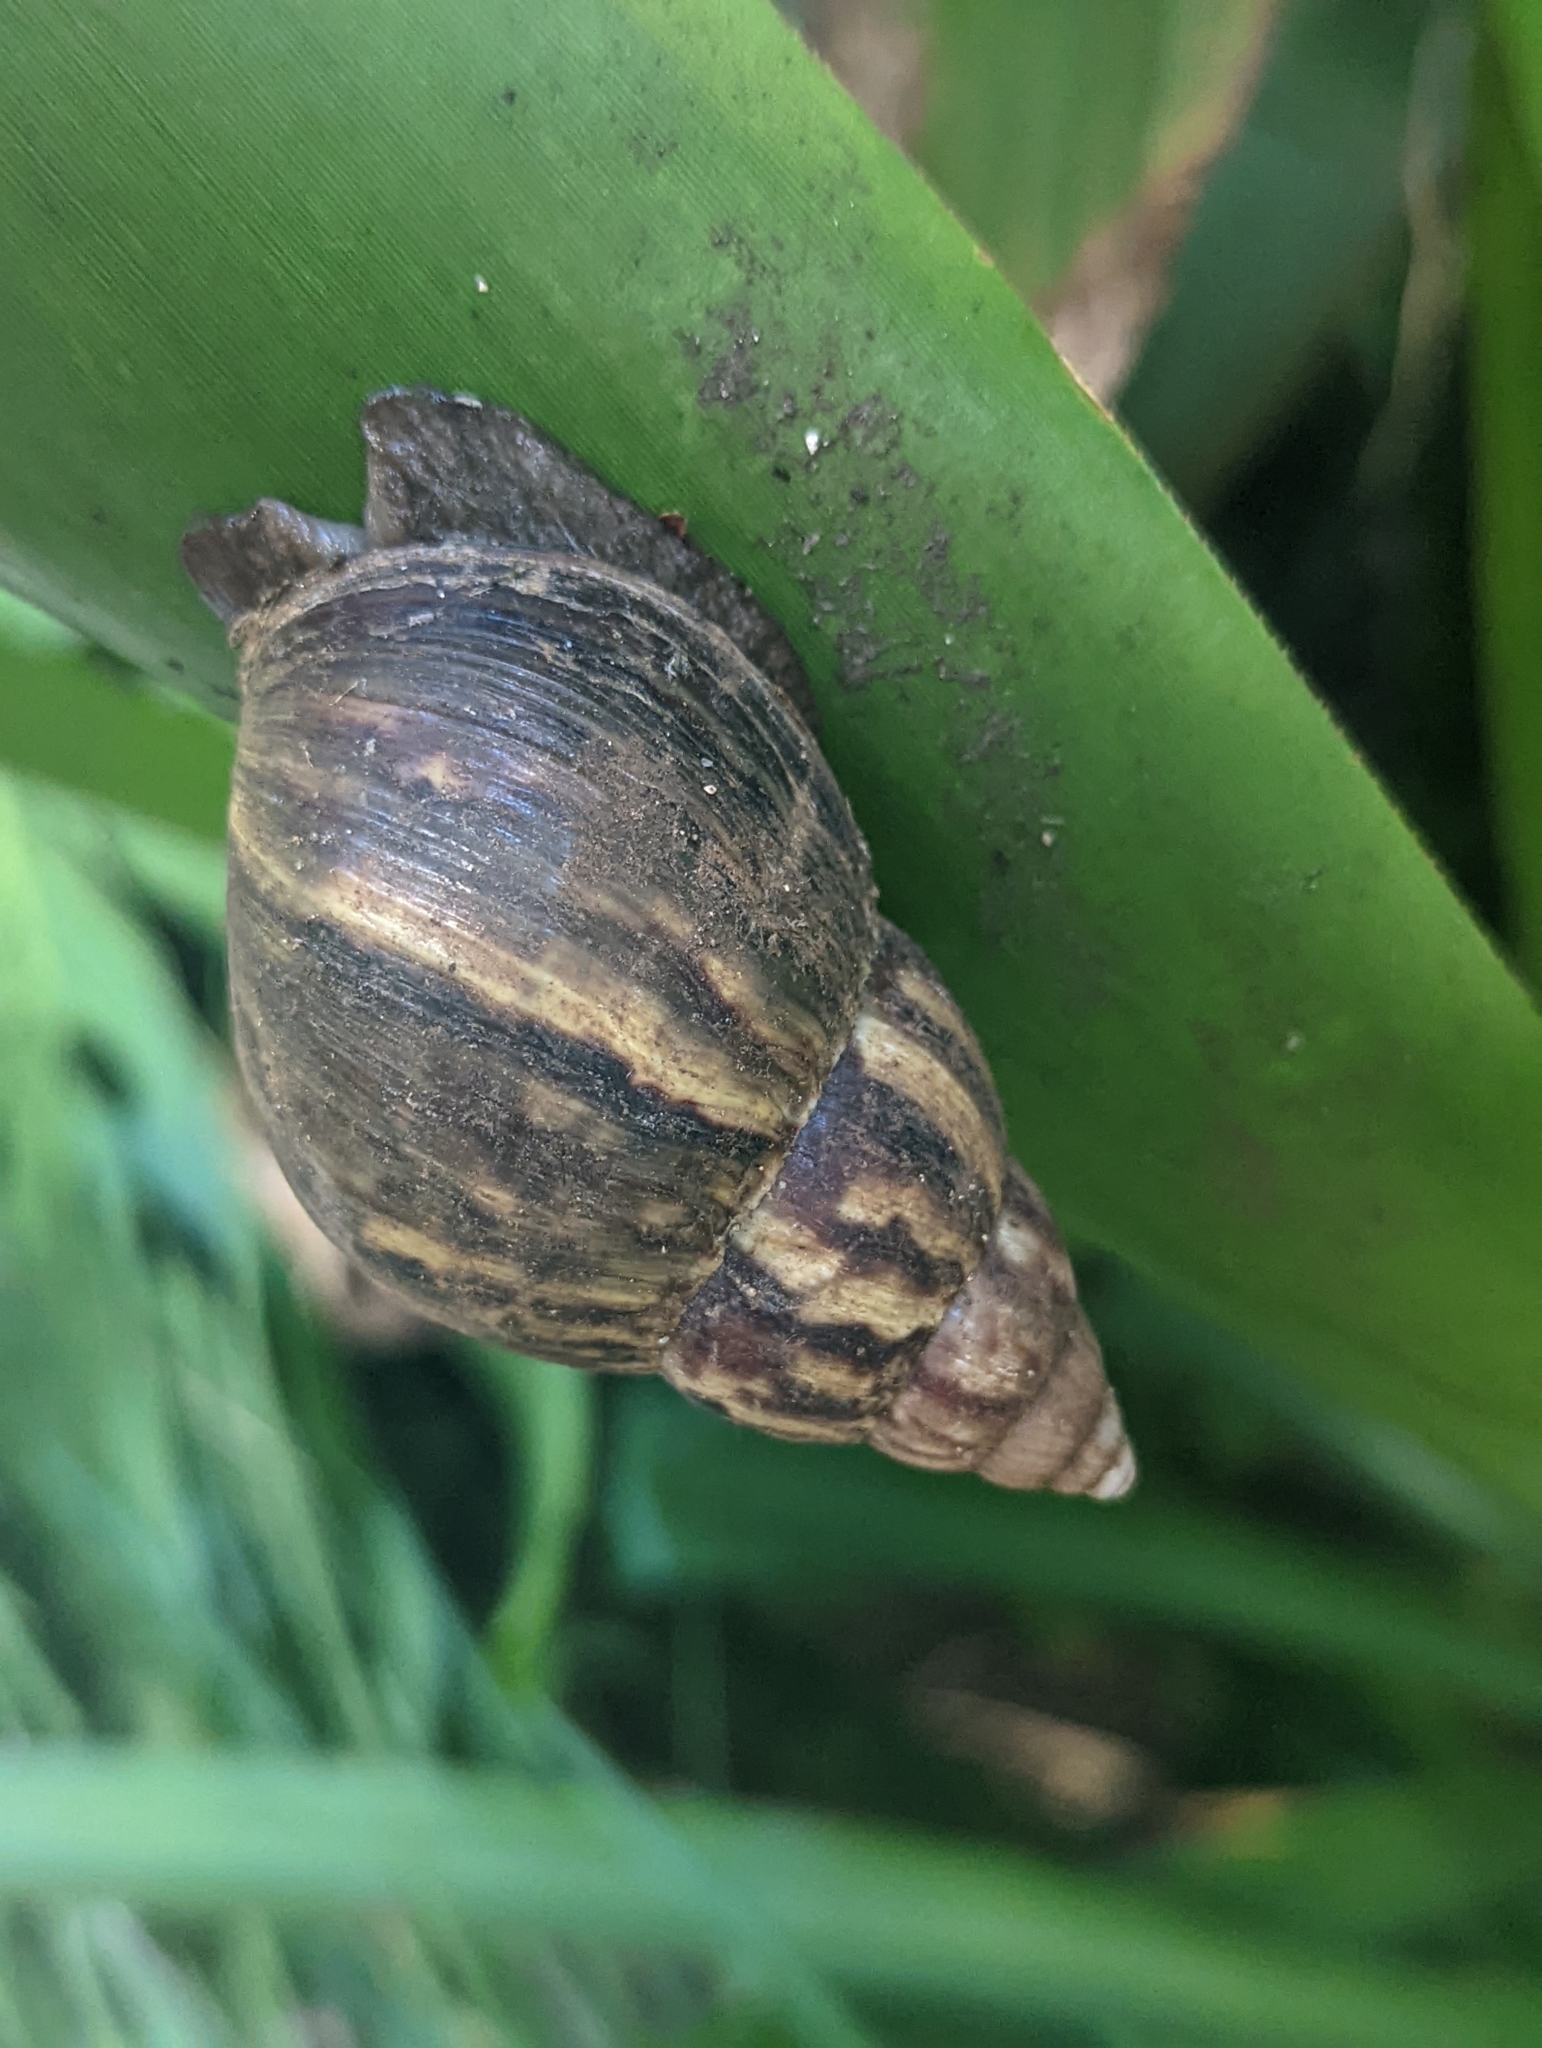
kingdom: Animalia
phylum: Mollusca
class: Gastropoda
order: Stylommatophora
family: Achatinidae
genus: Lissachatina
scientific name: Lissachatina fulica
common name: Giant african snail
